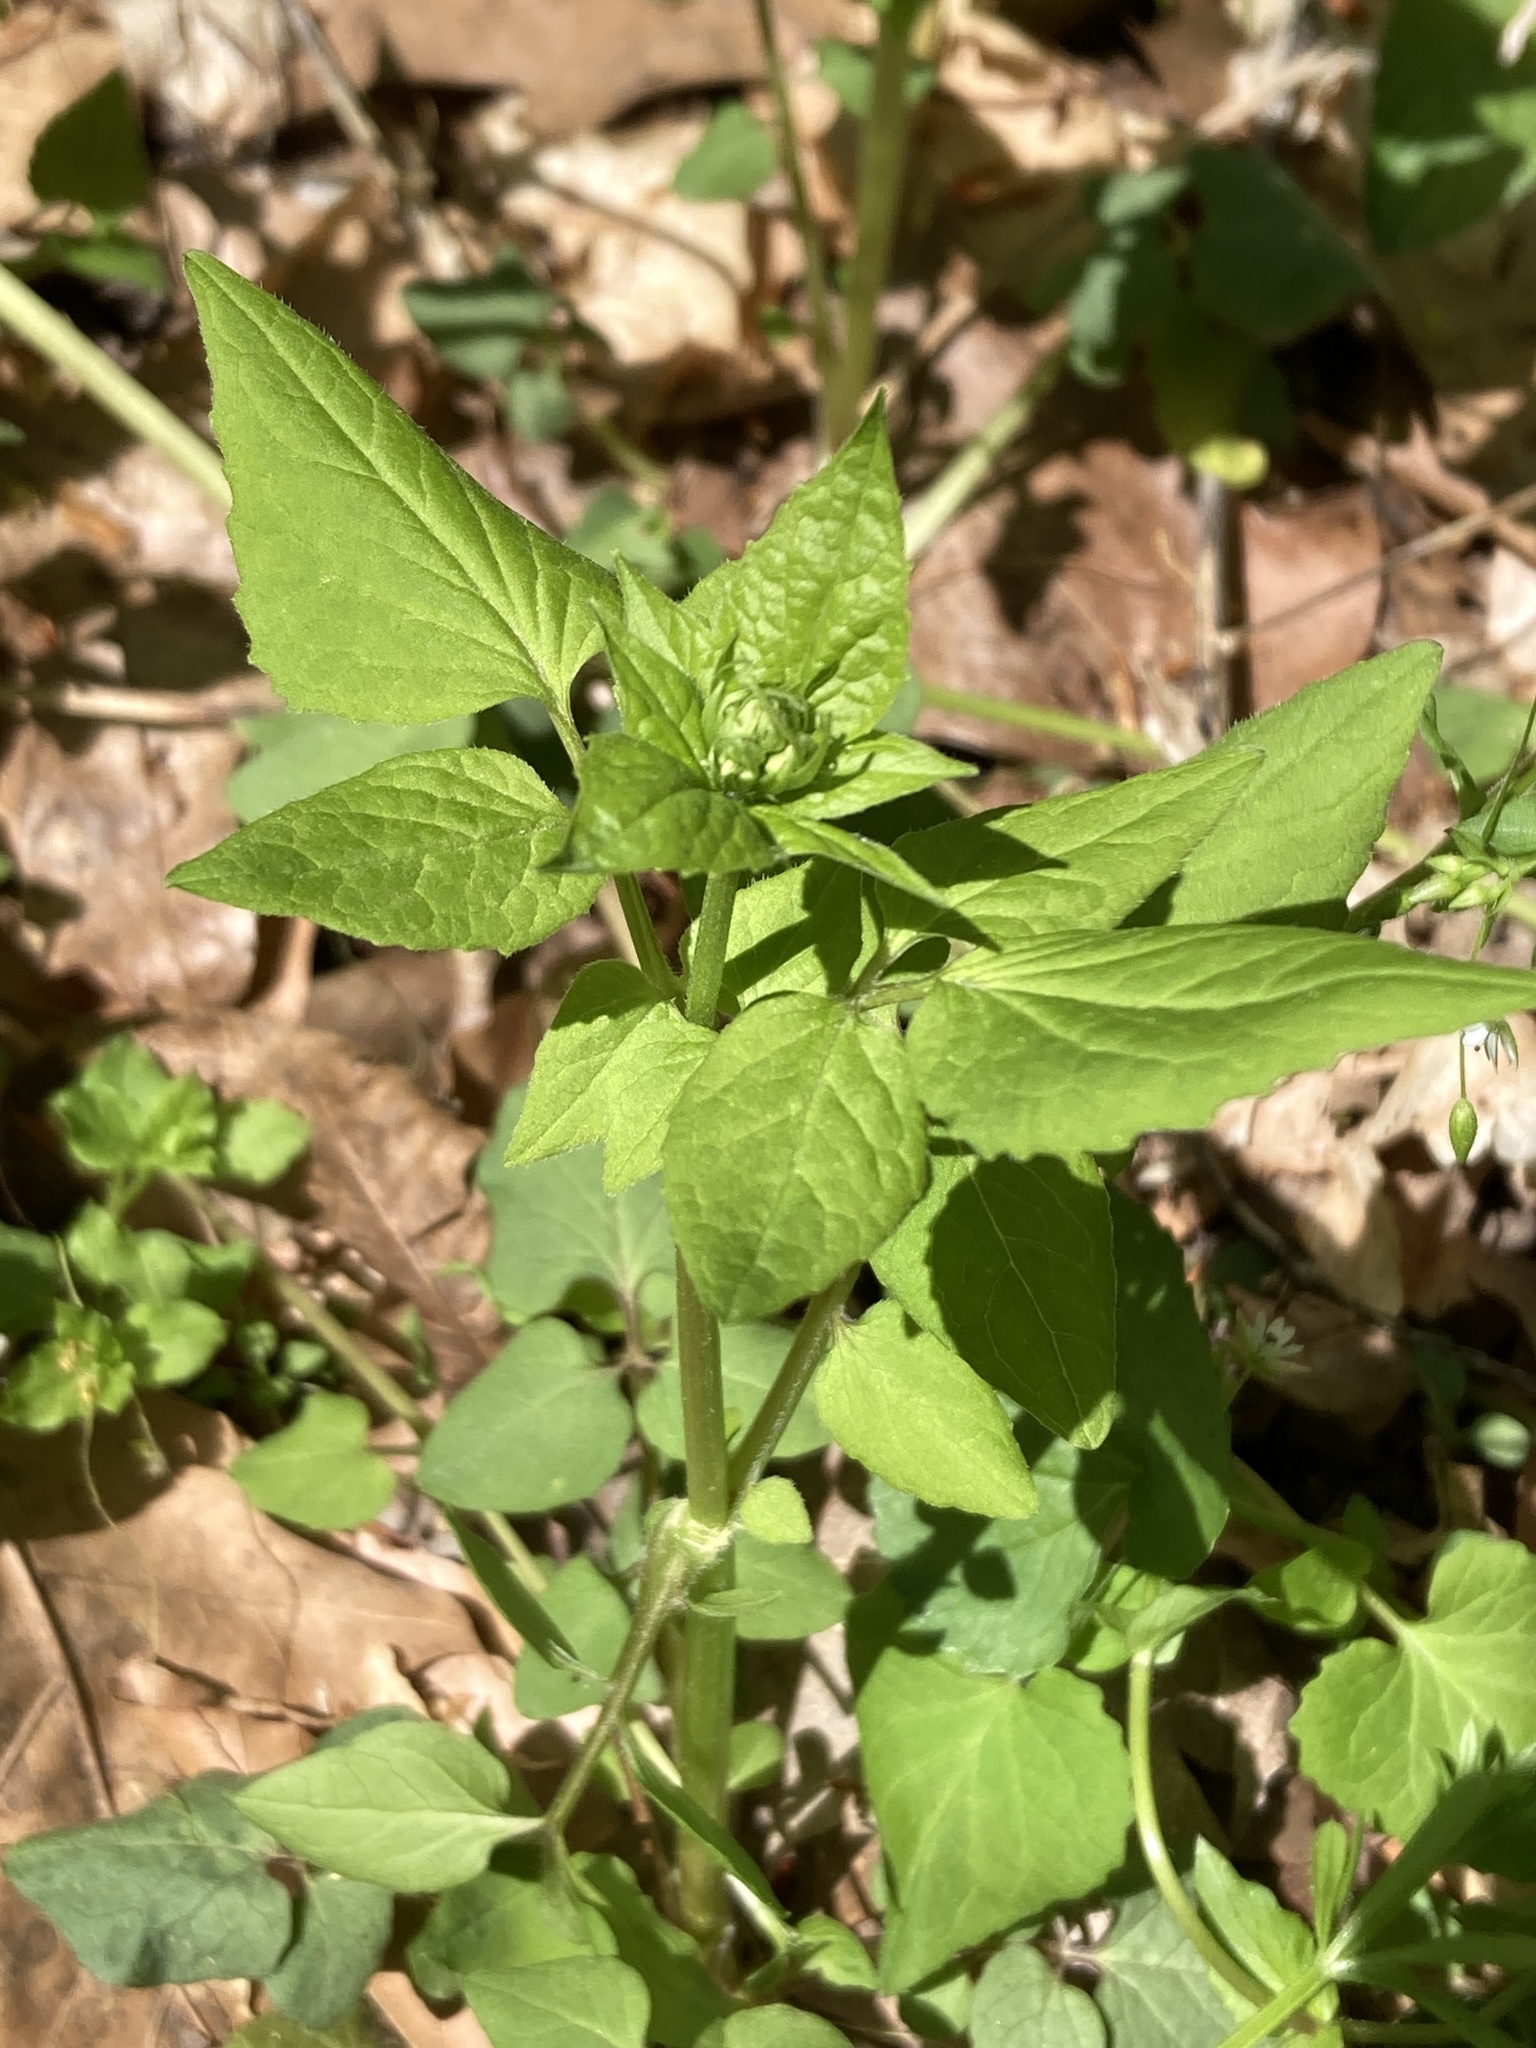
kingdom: Plantae
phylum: Tracheophyta
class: Magnoliopsida
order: Dipsacales
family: Caprifoliaceae
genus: Valeriana
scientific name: Valeriana pauciflora
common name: Long-tube valeriana
